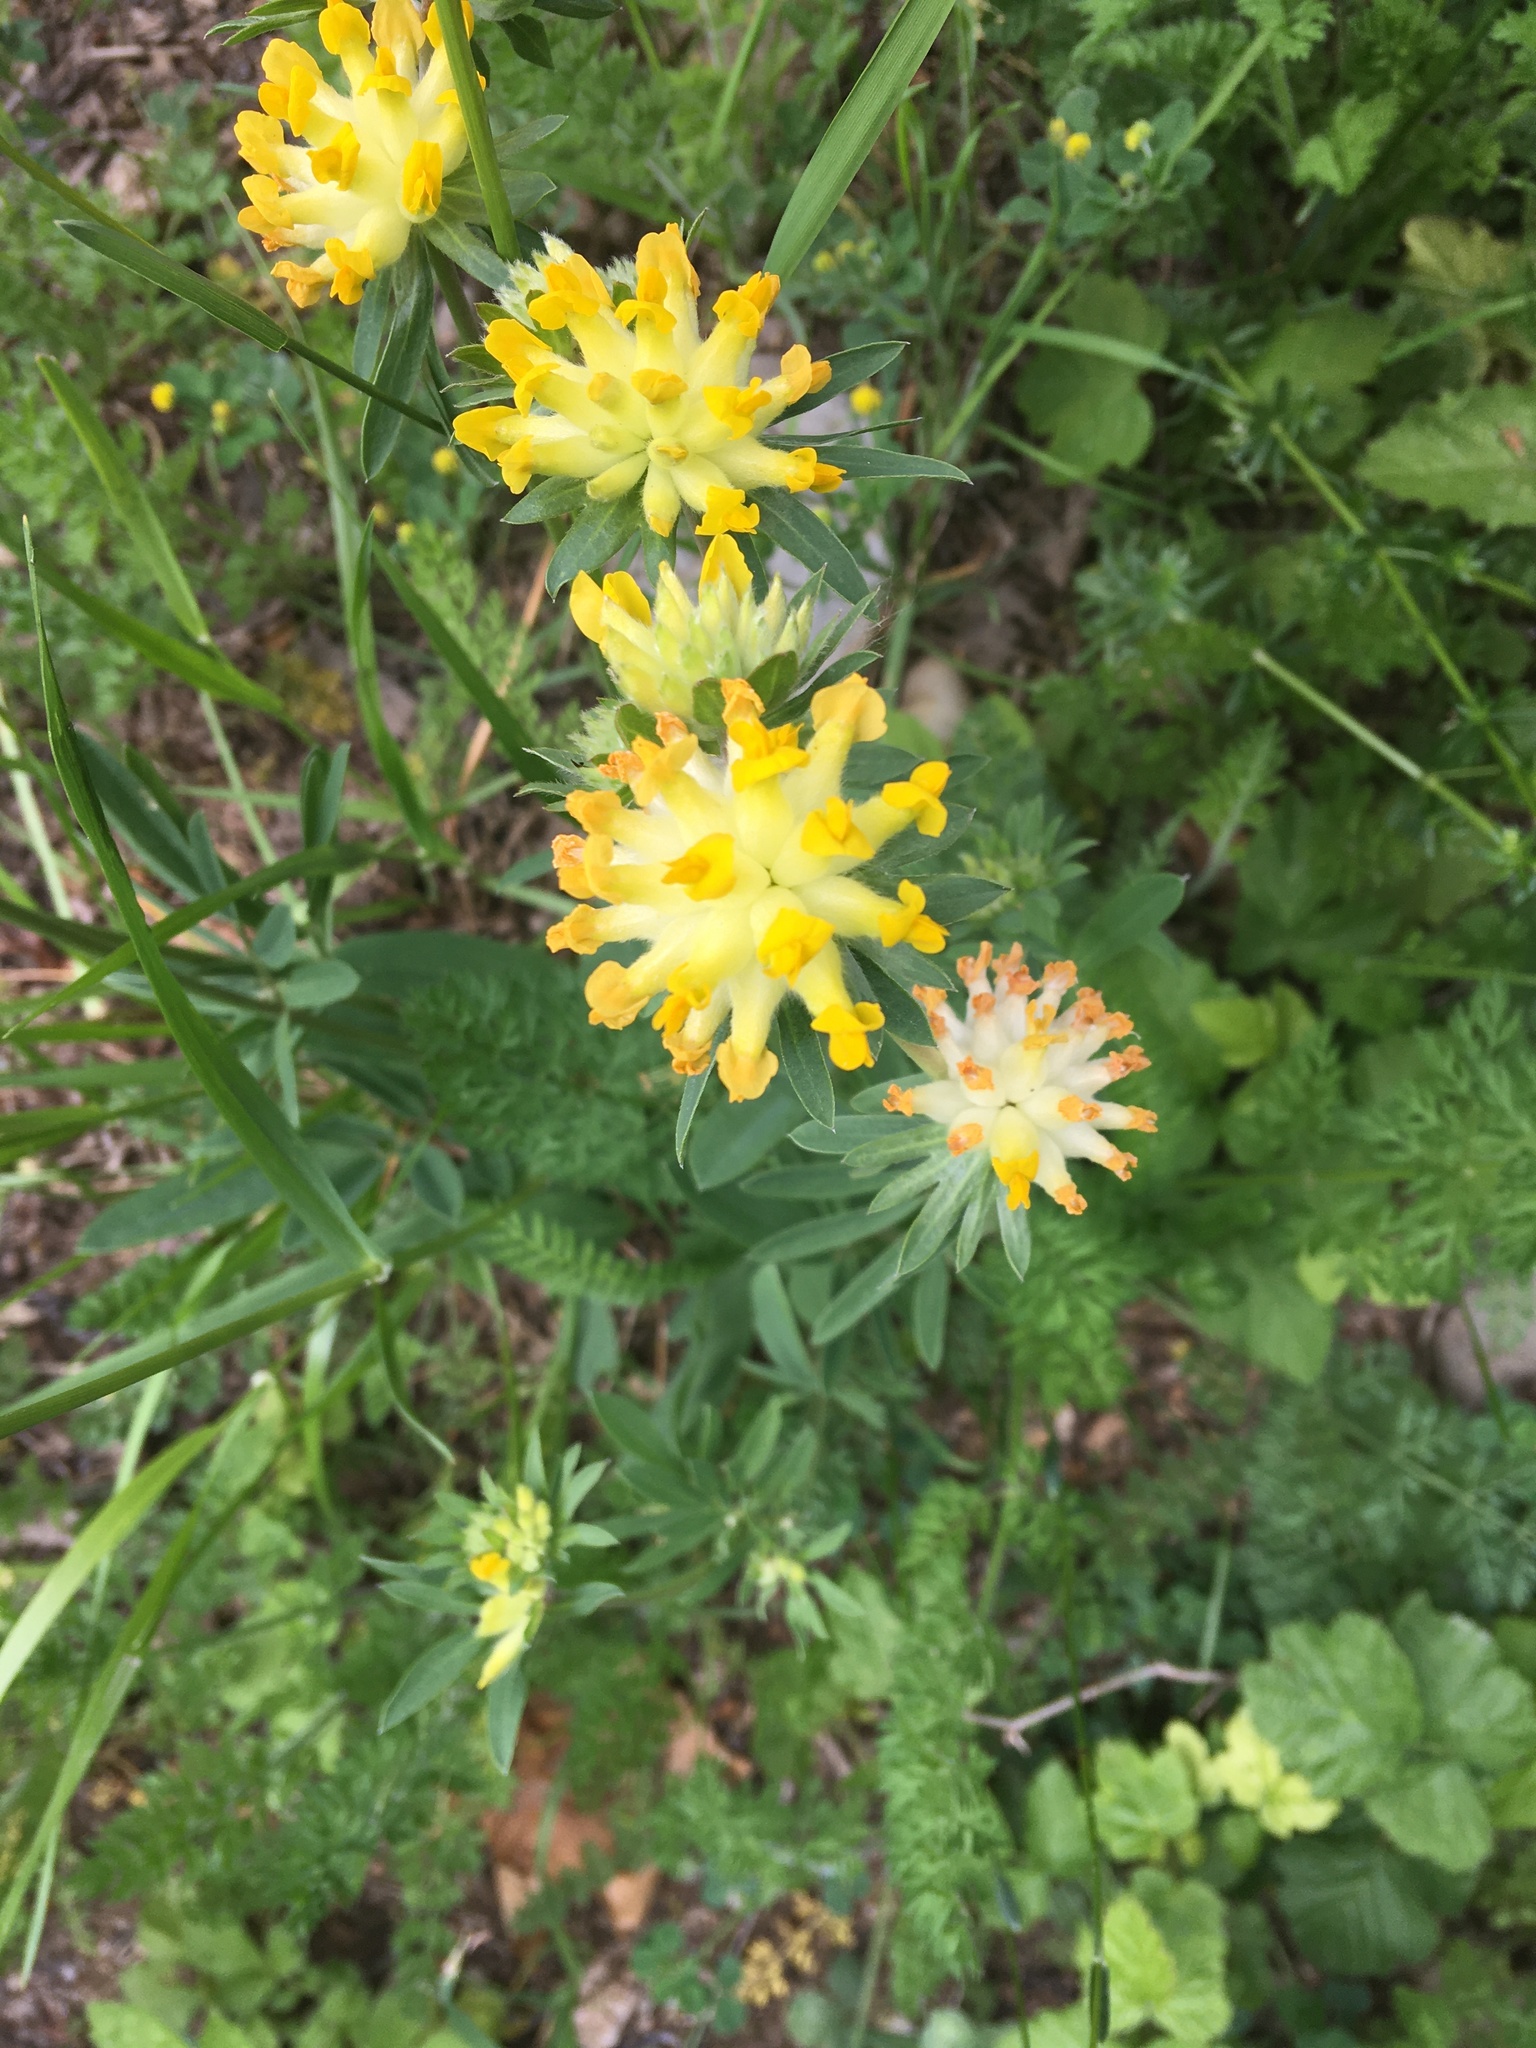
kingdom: Plantae
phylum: Tracheophyta
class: Magnoliopsida
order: Fabales
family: Fabaceae
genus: Anthyllis
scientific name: Anthyllis vulneraria
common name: Kidney vetch
